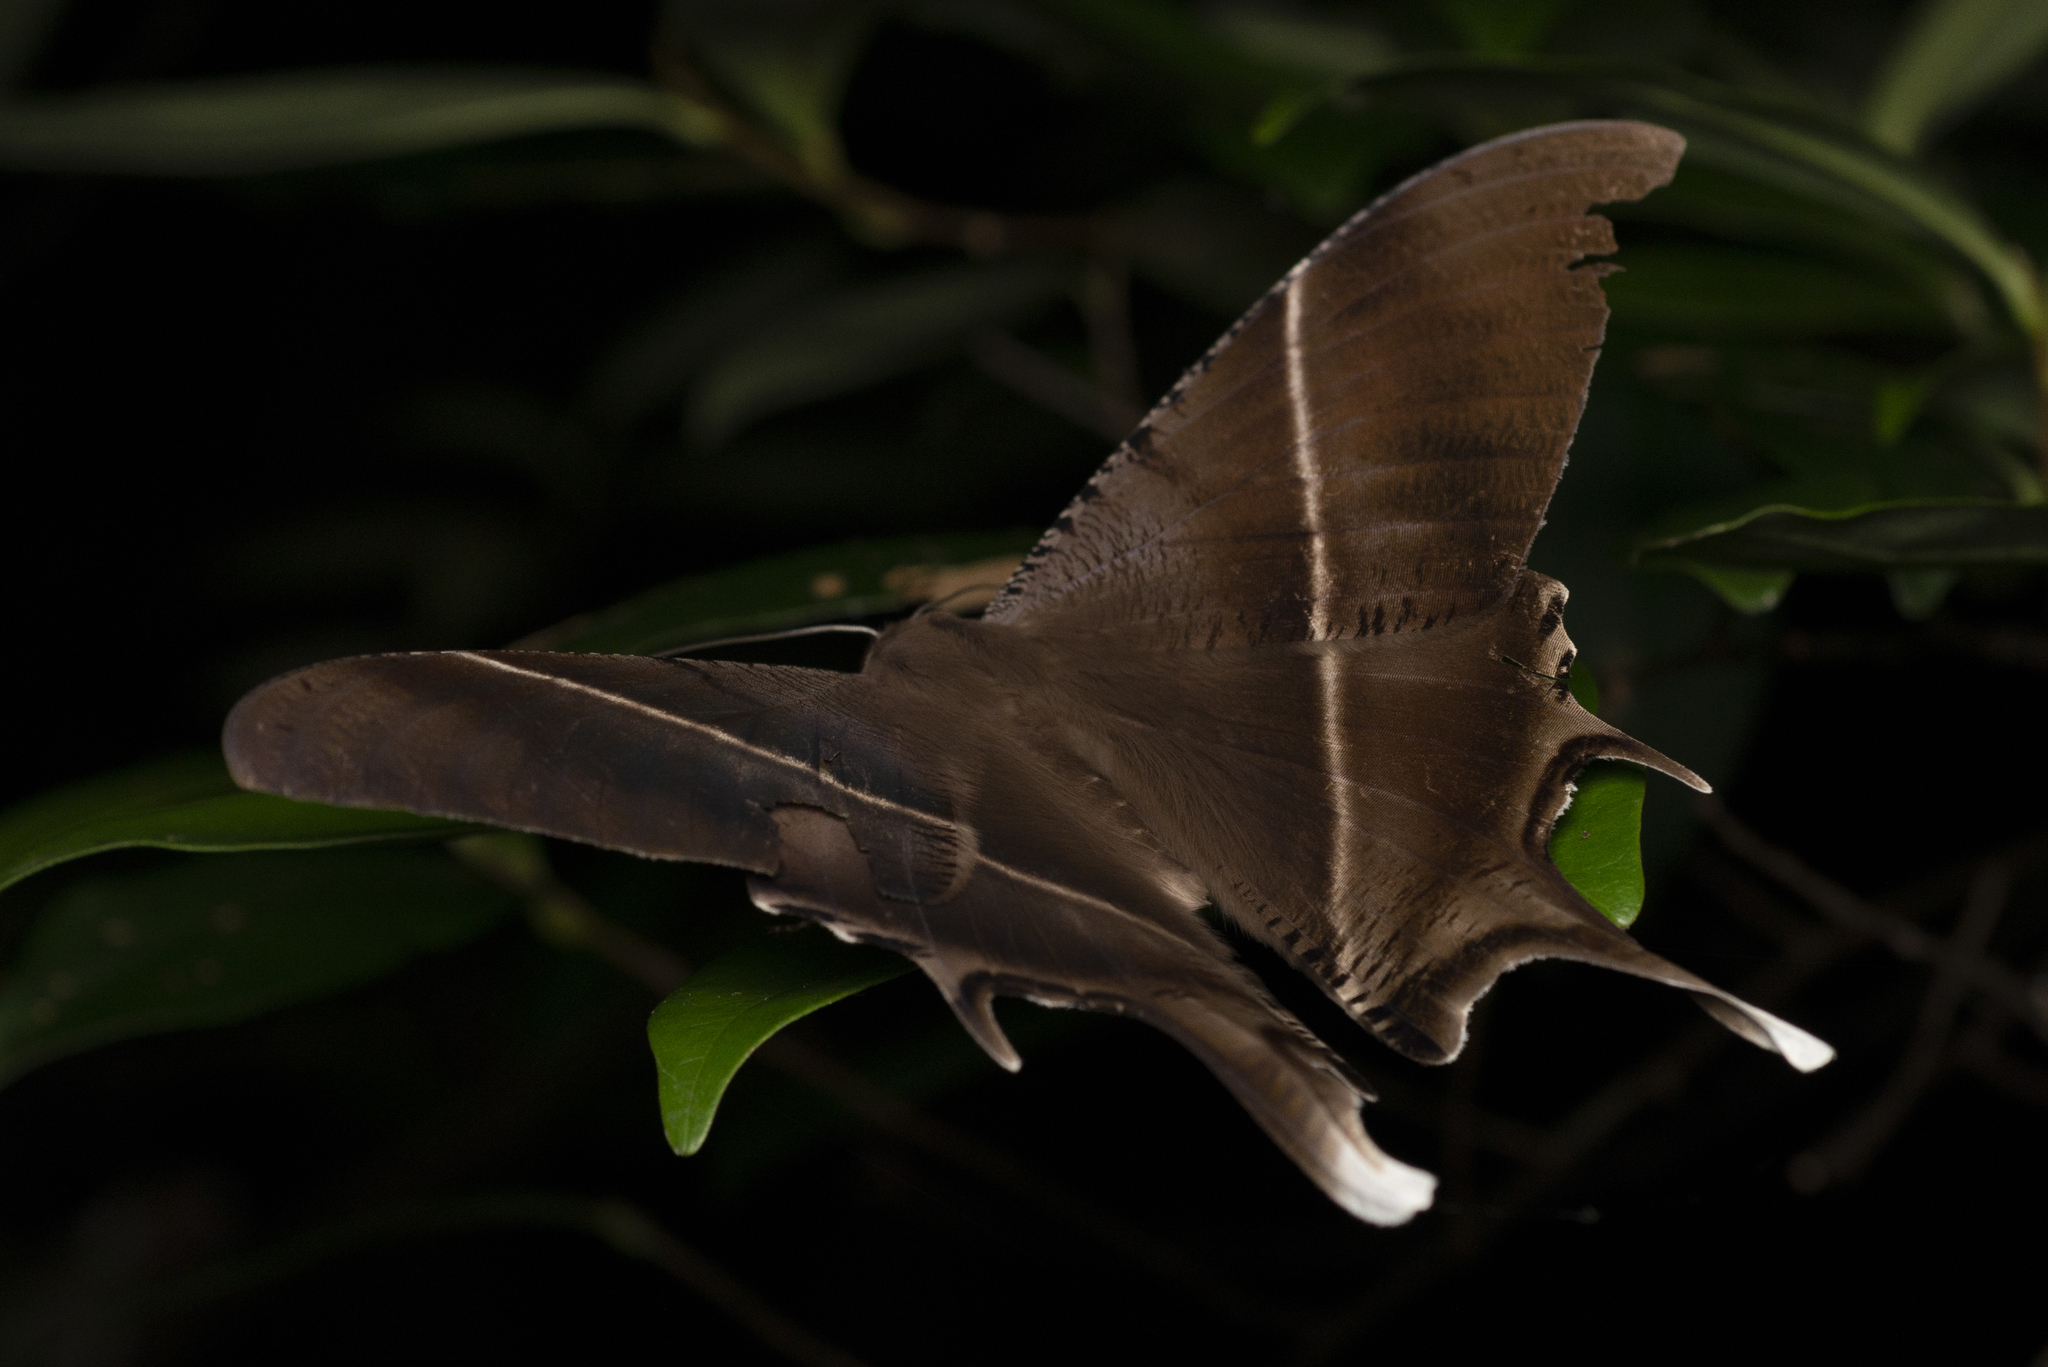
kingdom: Animalia
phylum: Arthropoda
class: Insecta
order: Lepidoptera
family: Uraniidae
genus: Lyssa
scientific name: Lyssa zampa
